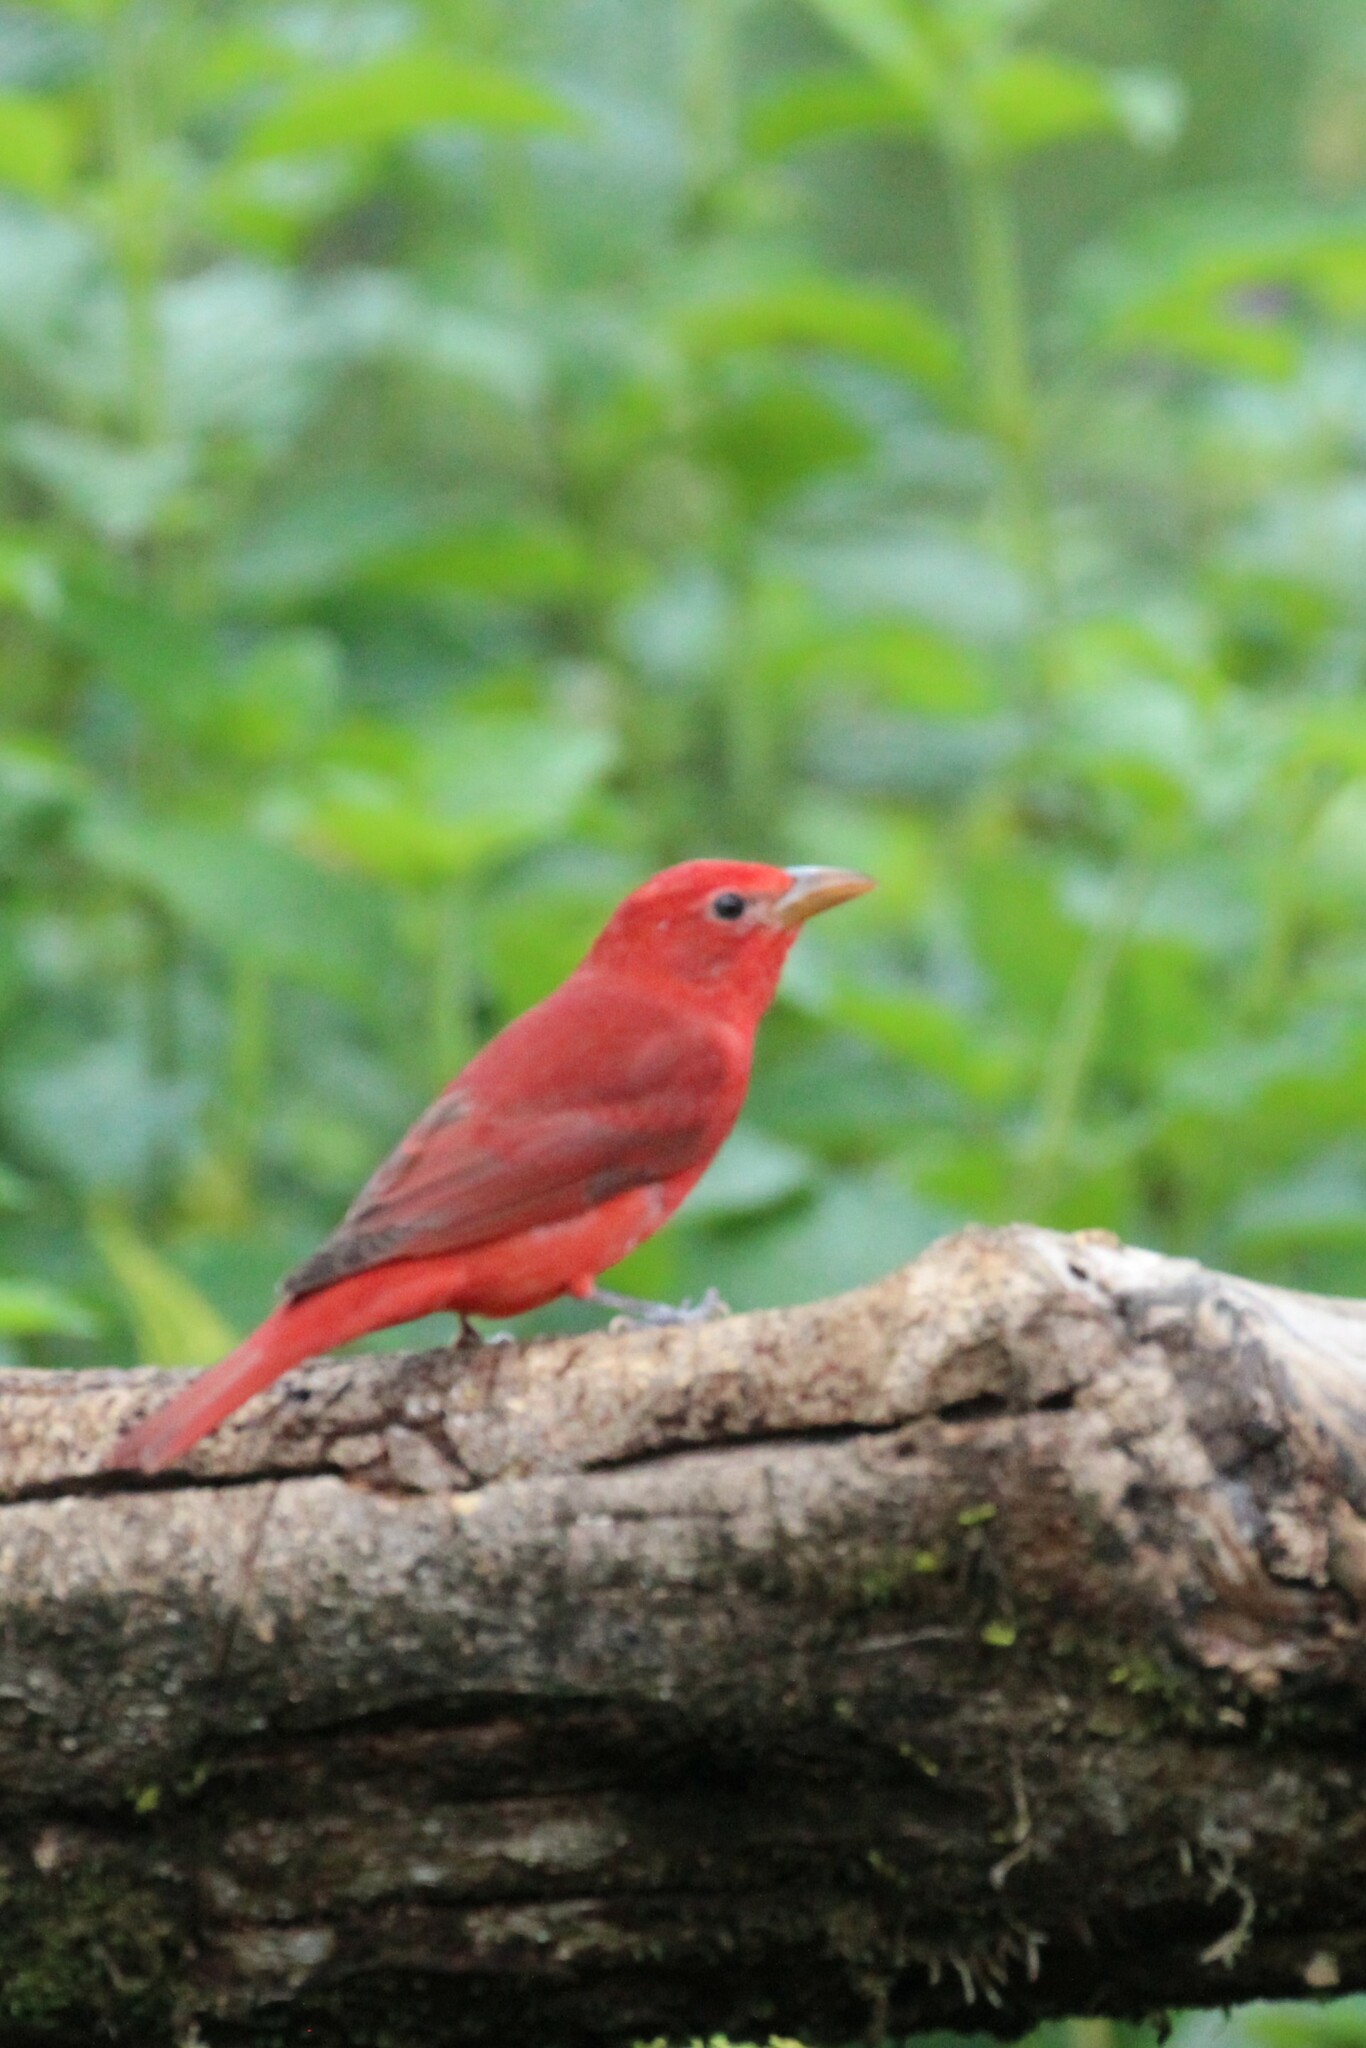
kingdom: Animalia
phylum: Chordata
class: Aves
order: Passeriformes
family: Cardinalidae
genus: Piranga
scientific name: Piranga rubra
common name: Summer tanager
